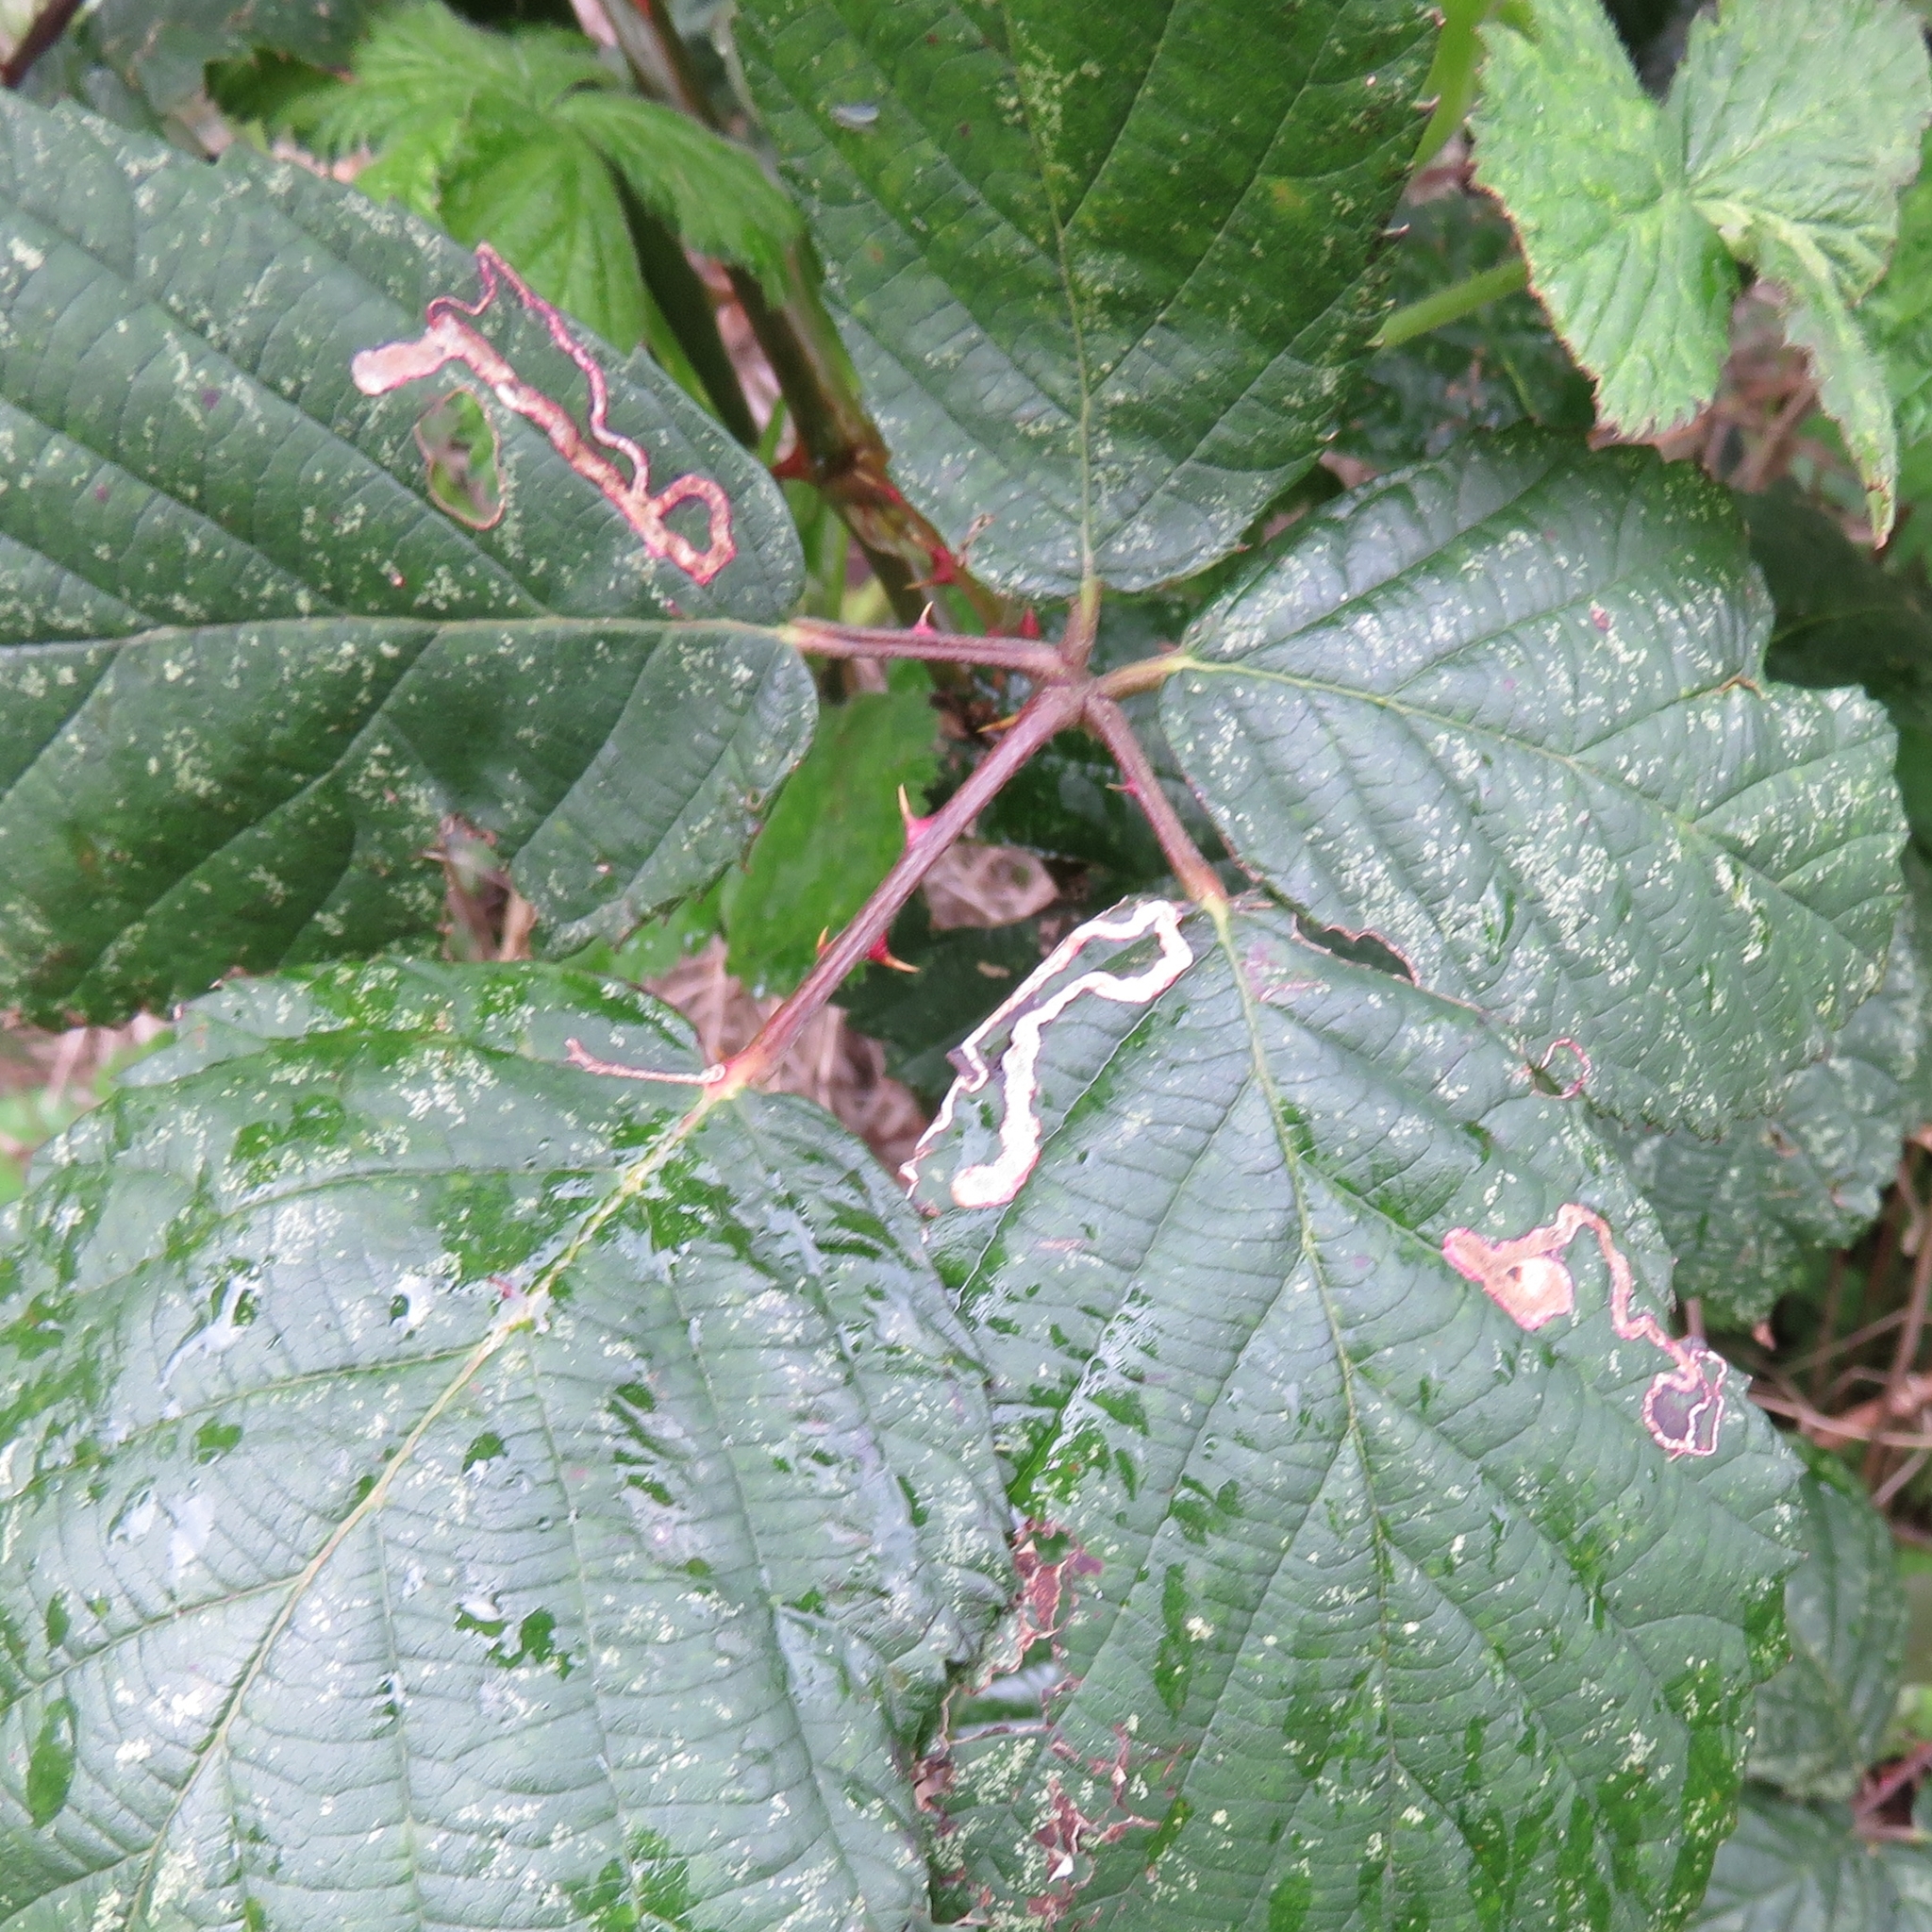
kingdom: Animalia
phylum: Arthropoda
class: Insecta
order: Lepidoptera
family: Nepticulidae
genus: Stigmella
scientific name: Stigmella aurella
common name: Golden pigmy
